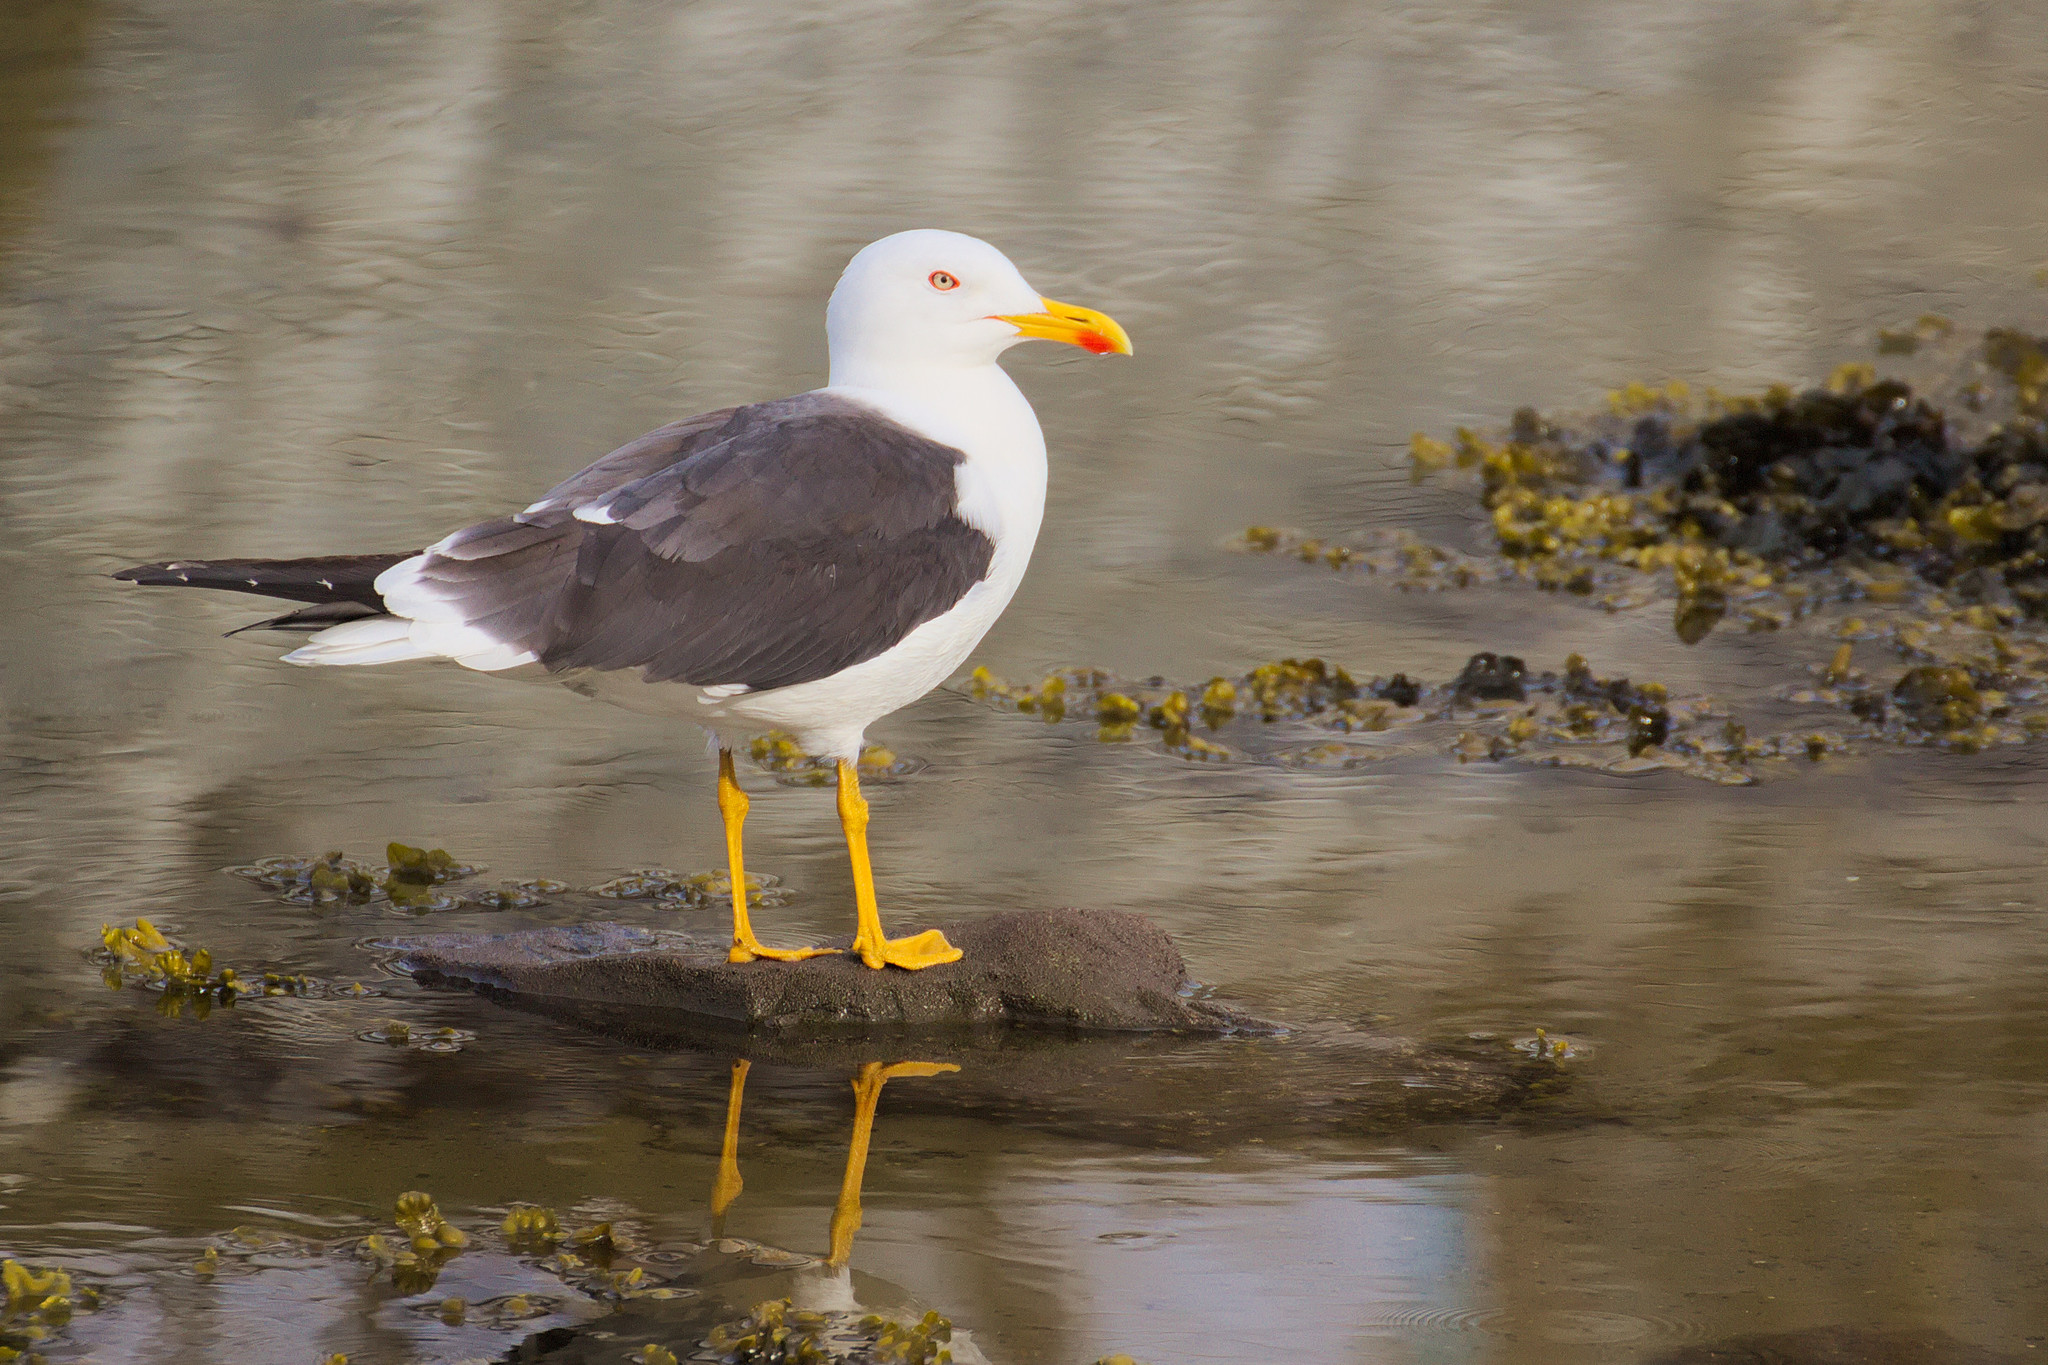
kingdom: Animalia
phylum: Chordata
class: Aves
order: Charadriiformes
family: Laridae
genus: Larus
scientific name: Larus fuscus
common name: Lesser black-backed gull
